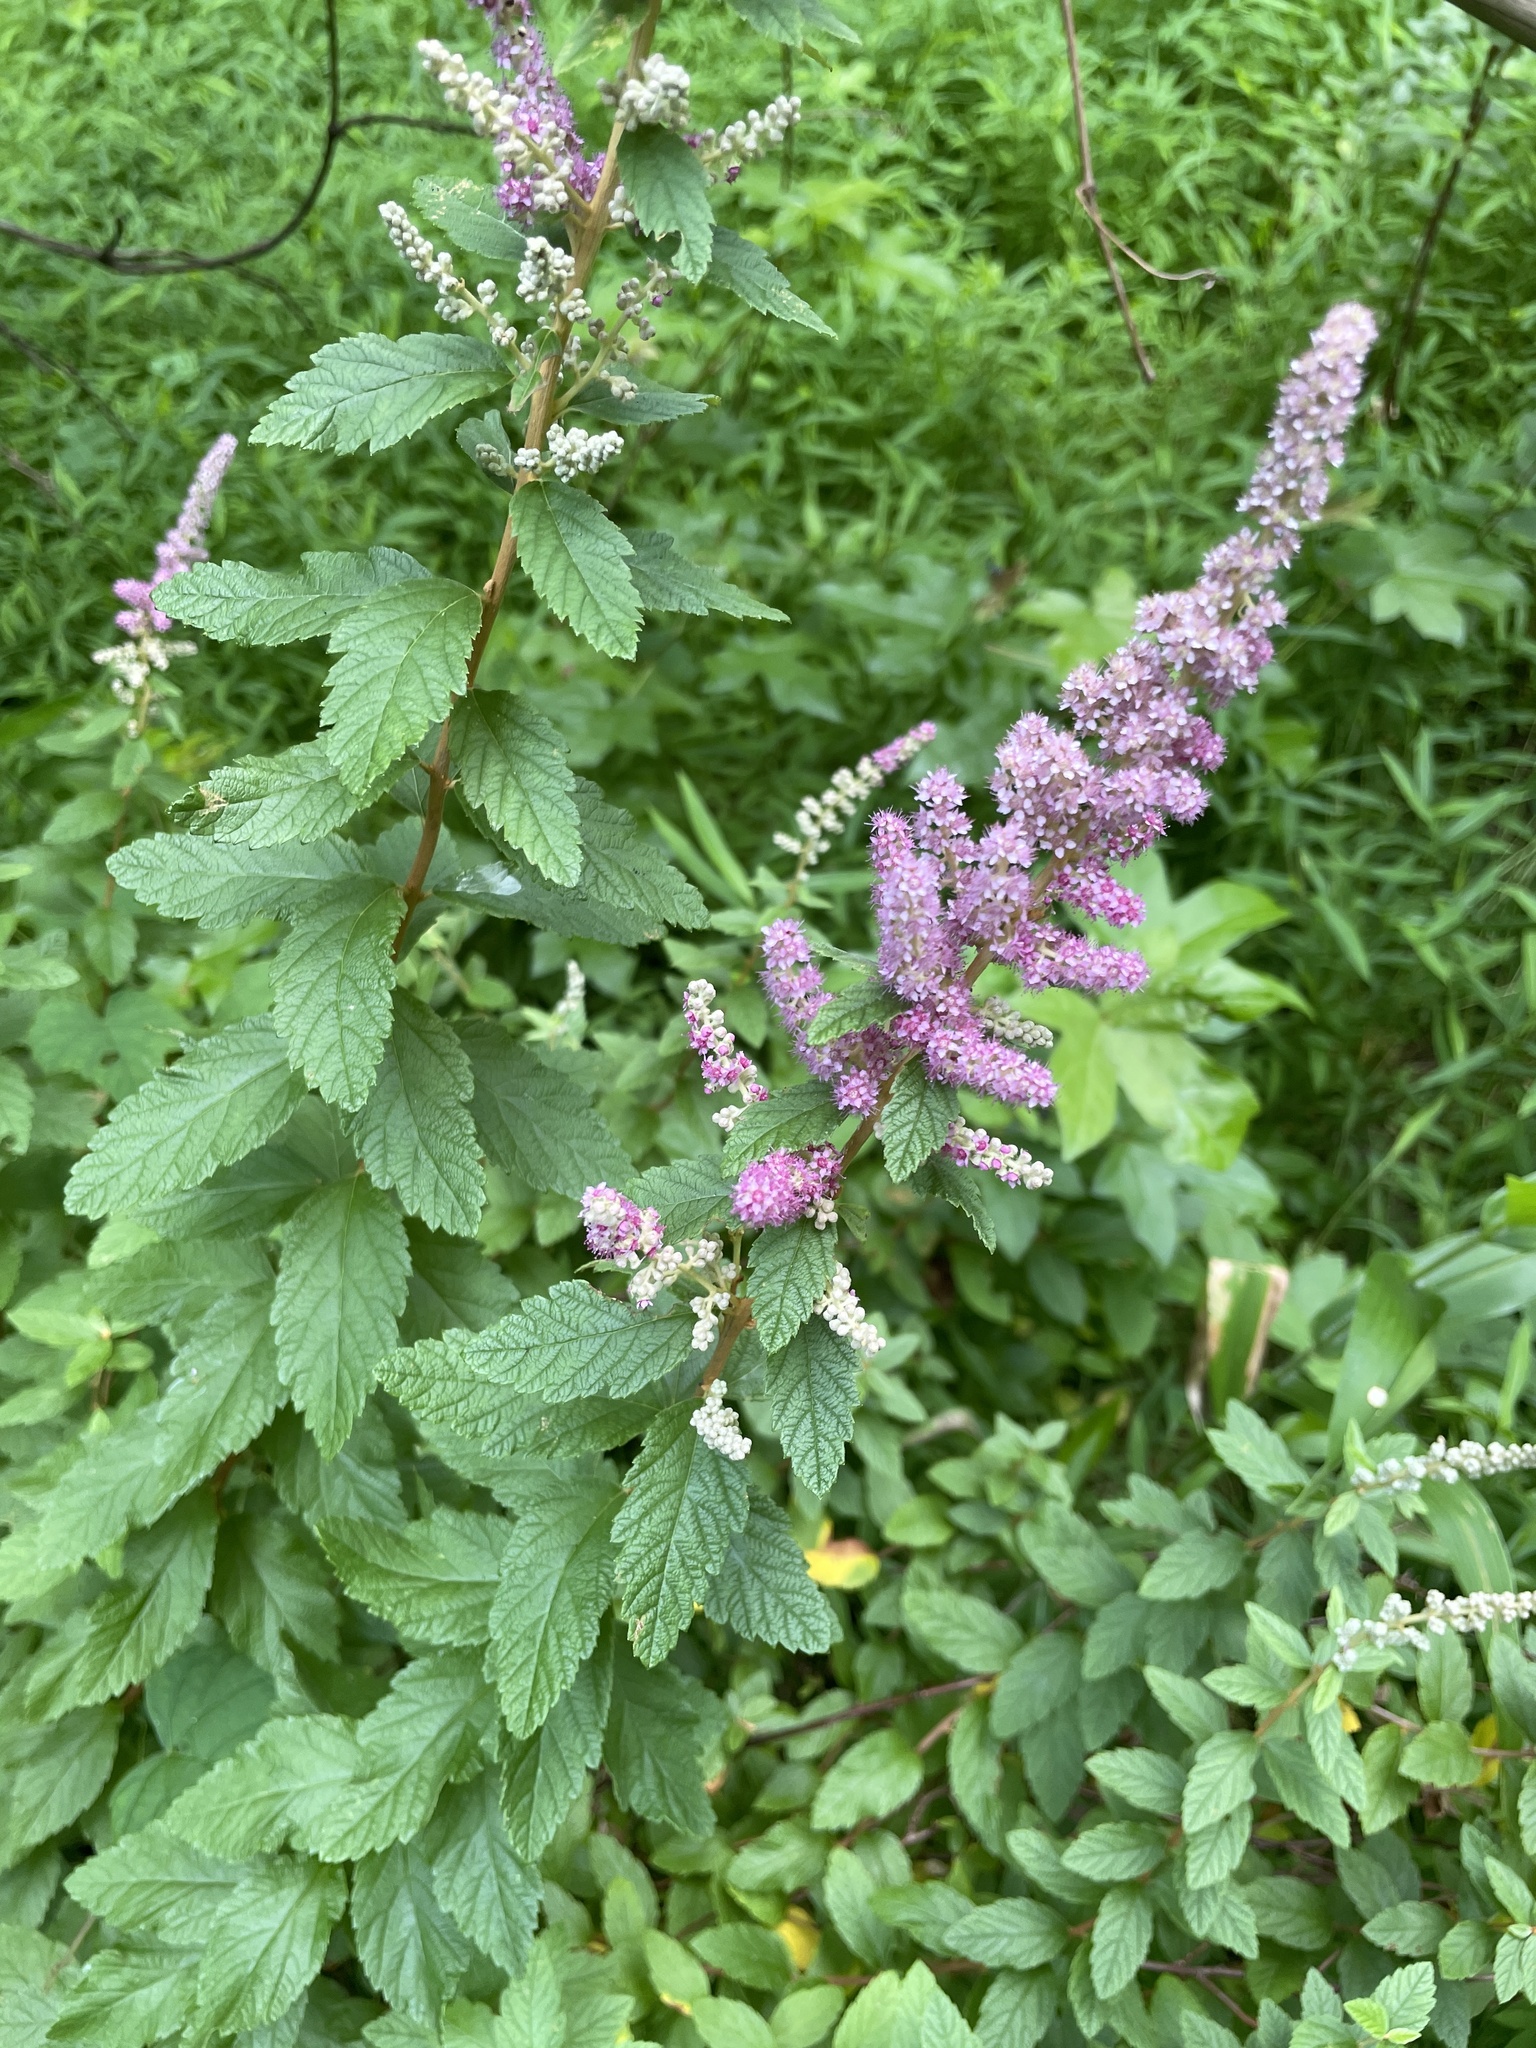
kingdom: Plantae
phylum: Tracheophyta
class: Magnoliopsida
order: Rosales
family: Rosaceae
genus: Spiraea
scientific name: Spiraea tomentosa
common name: Hardhack
